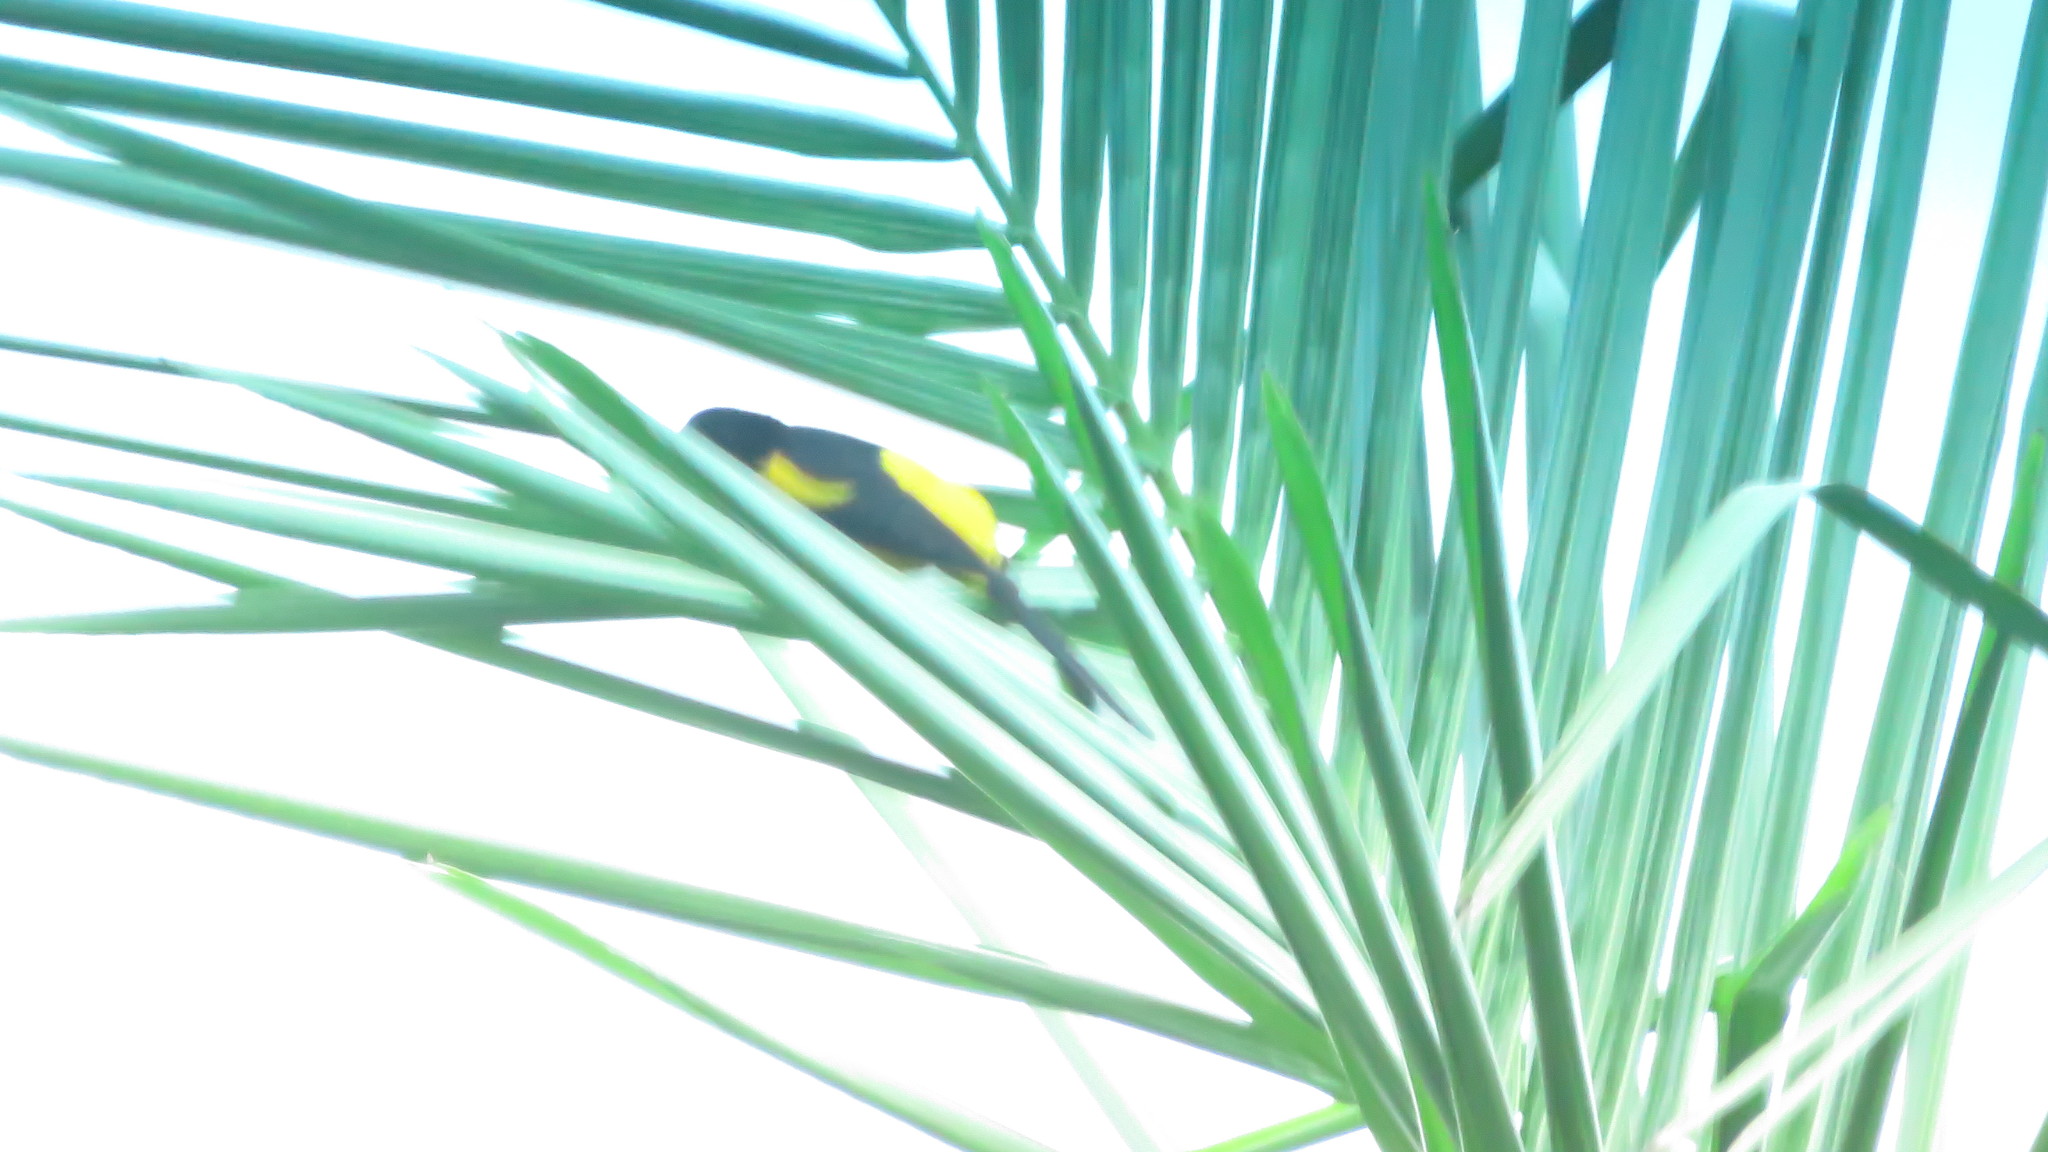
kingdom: Animalia
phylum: Chordata
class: Aves
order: Passeriformes
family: Icteridae
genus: Icterus
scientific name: Icterus prosthemelas
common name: Black-cowled oriole
